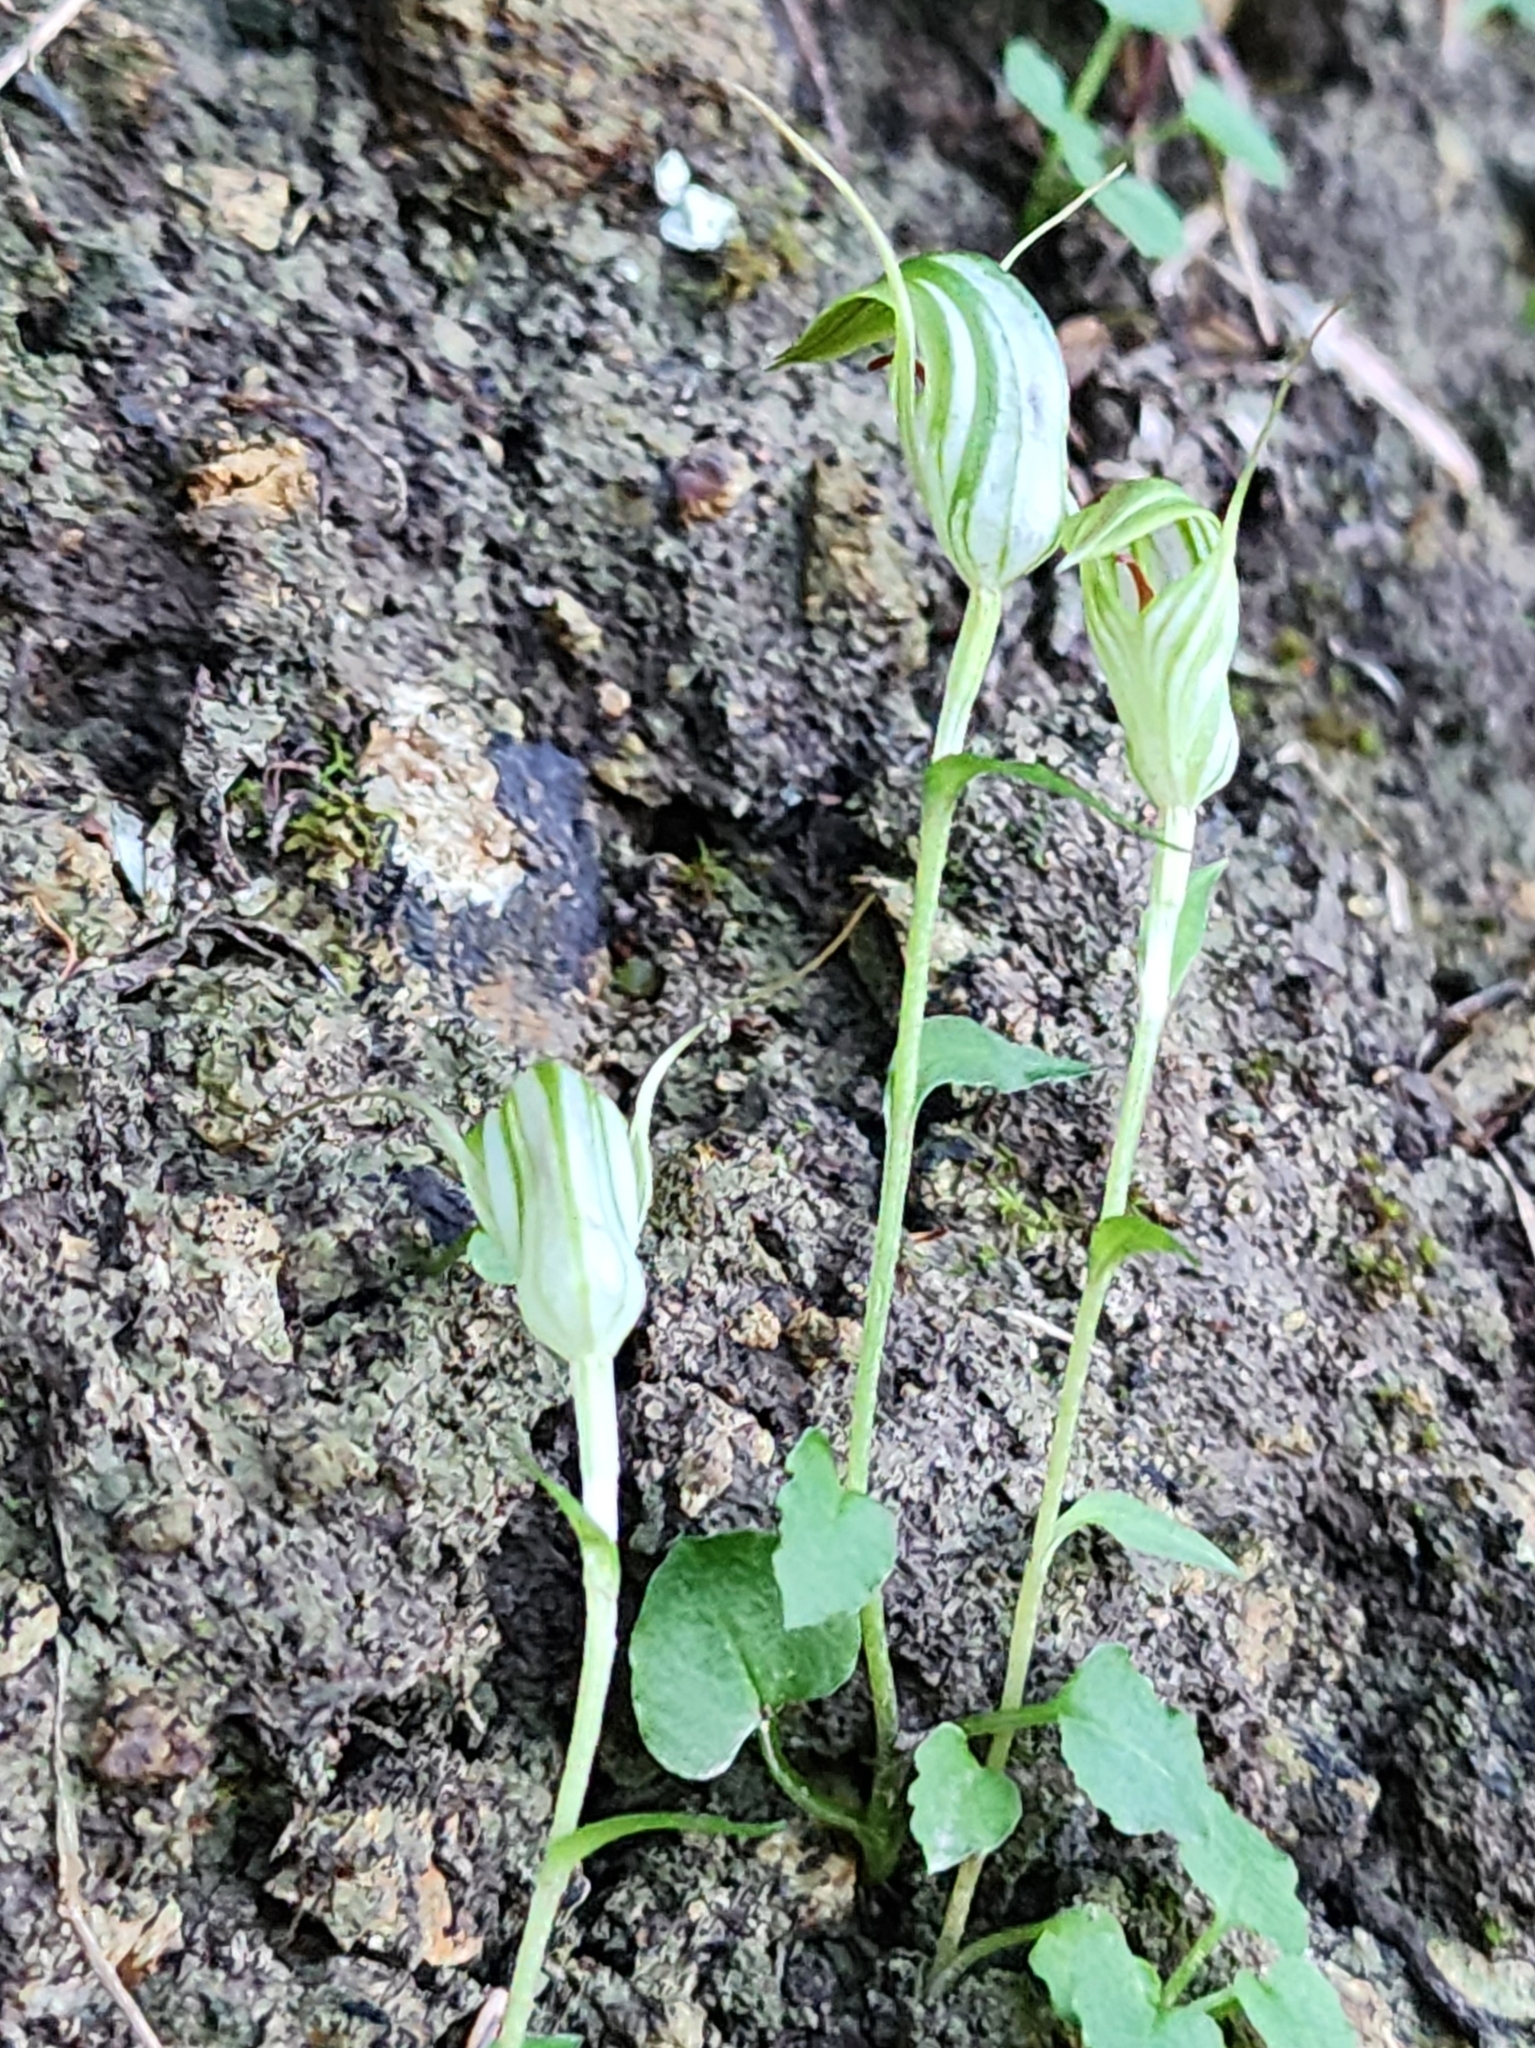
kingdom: Plantae
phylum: Tracheophyta
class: Liliopsida
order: Asparagales
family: Orchidaceae
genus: Pterostylis
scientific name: Pterostylis alobula
